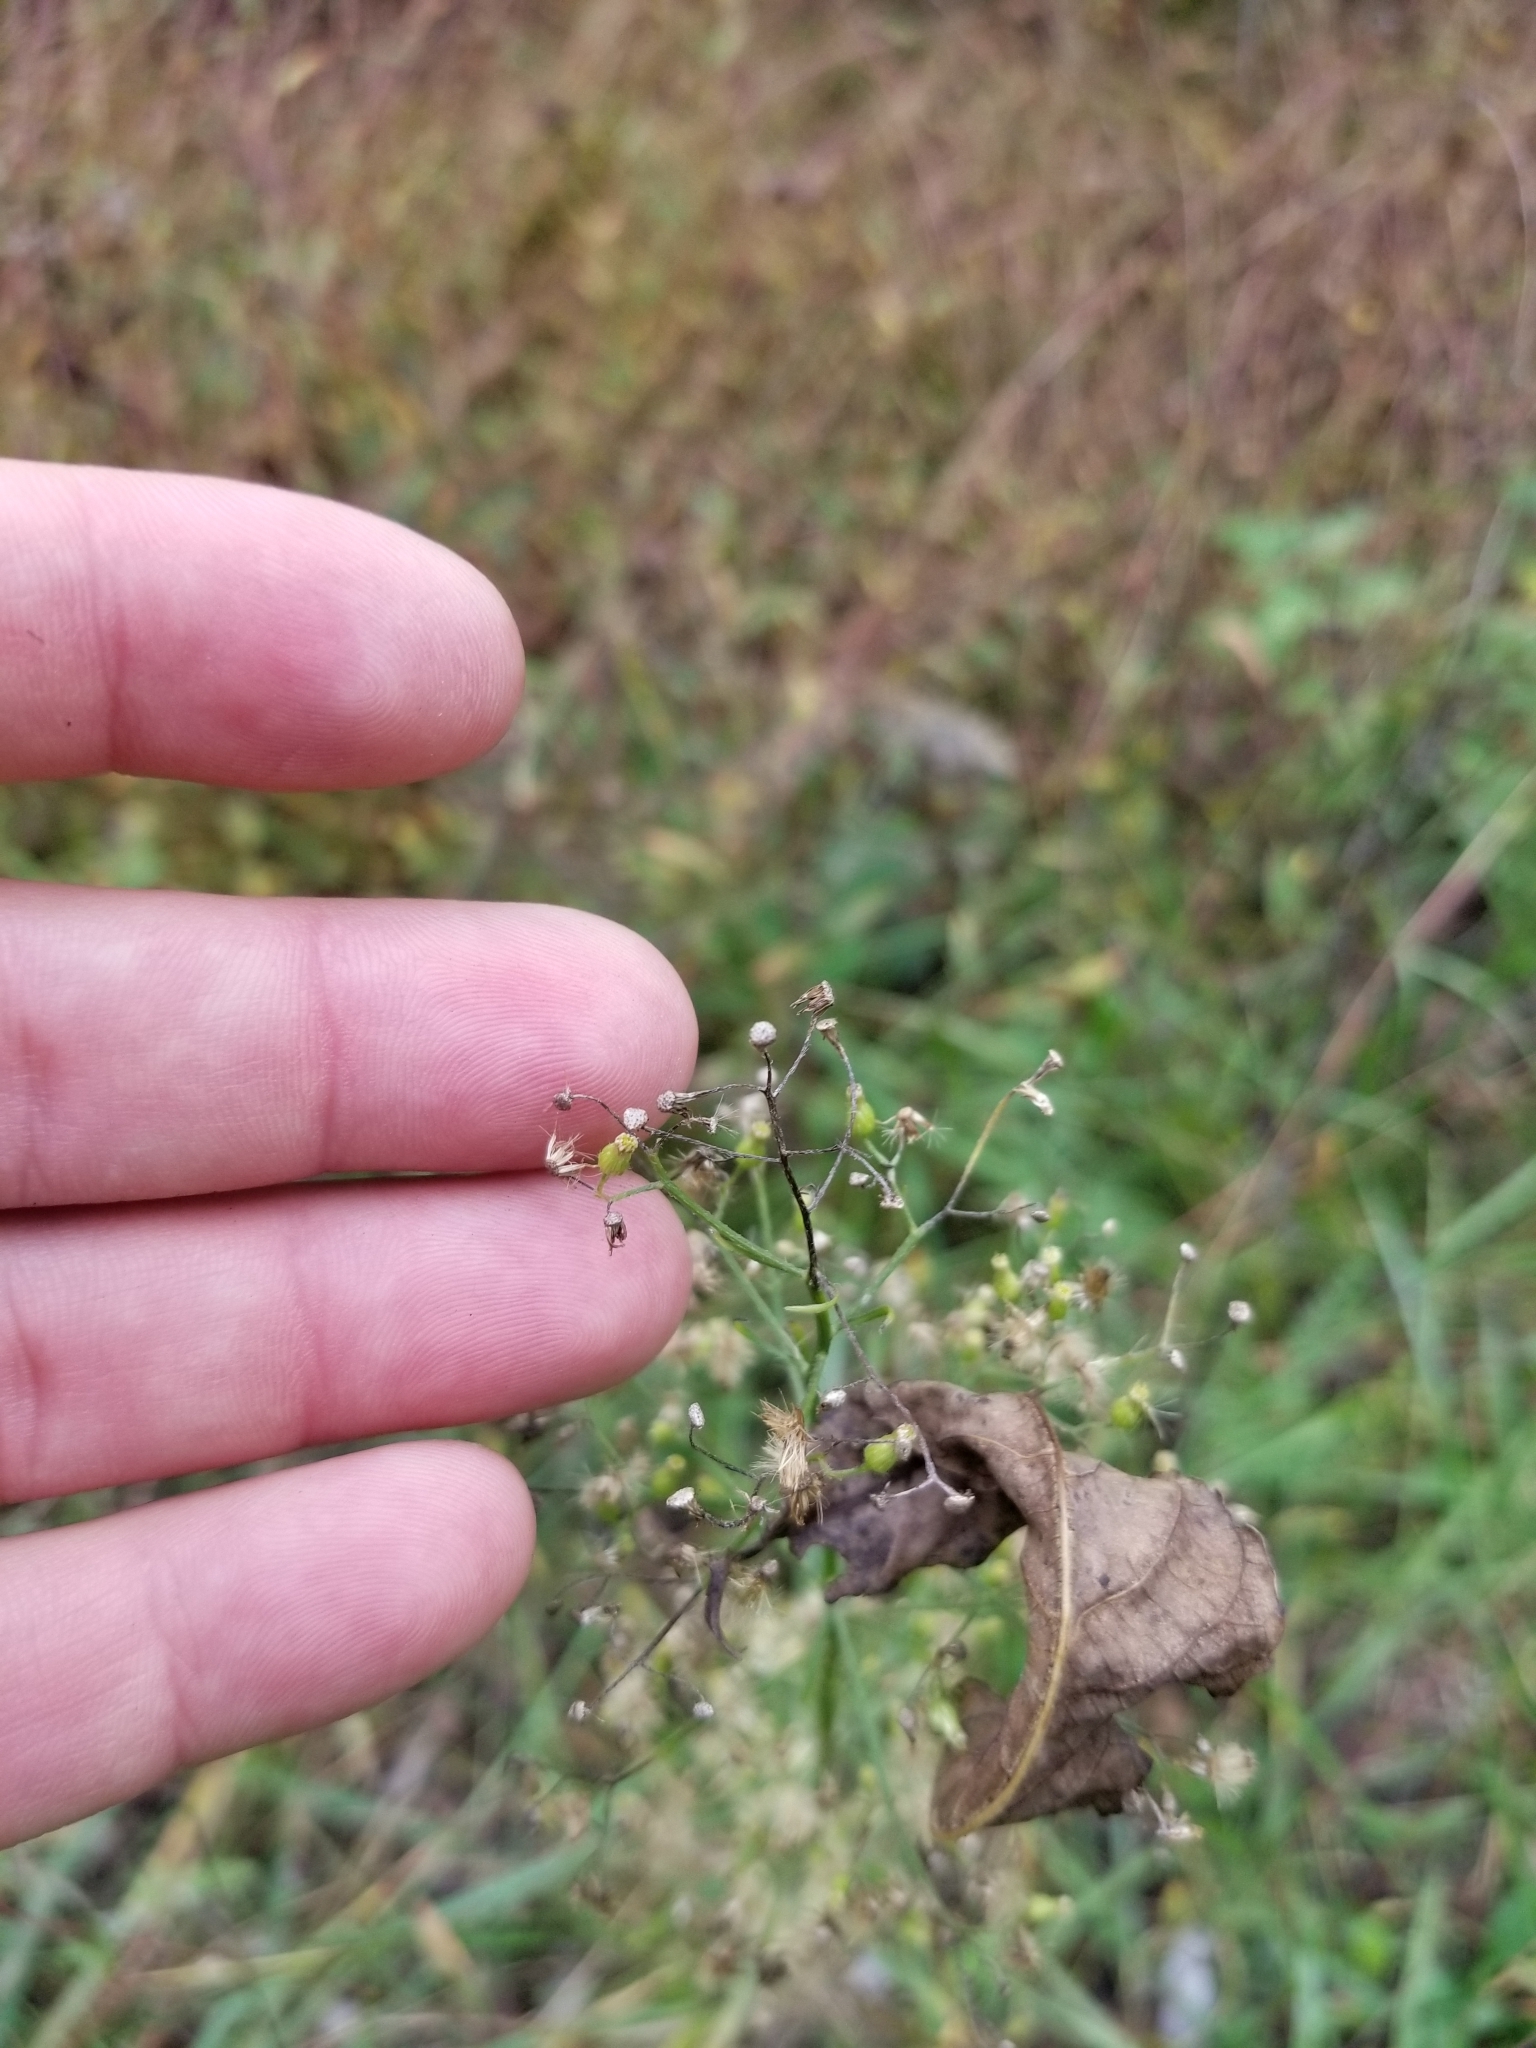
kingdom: Plantae
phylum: Tracheophyta
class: Magnoliopsida
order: Asterales
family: Asteraceae
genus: Erigeron
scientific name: Erigeron canadensis
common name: Canadian fleabane
